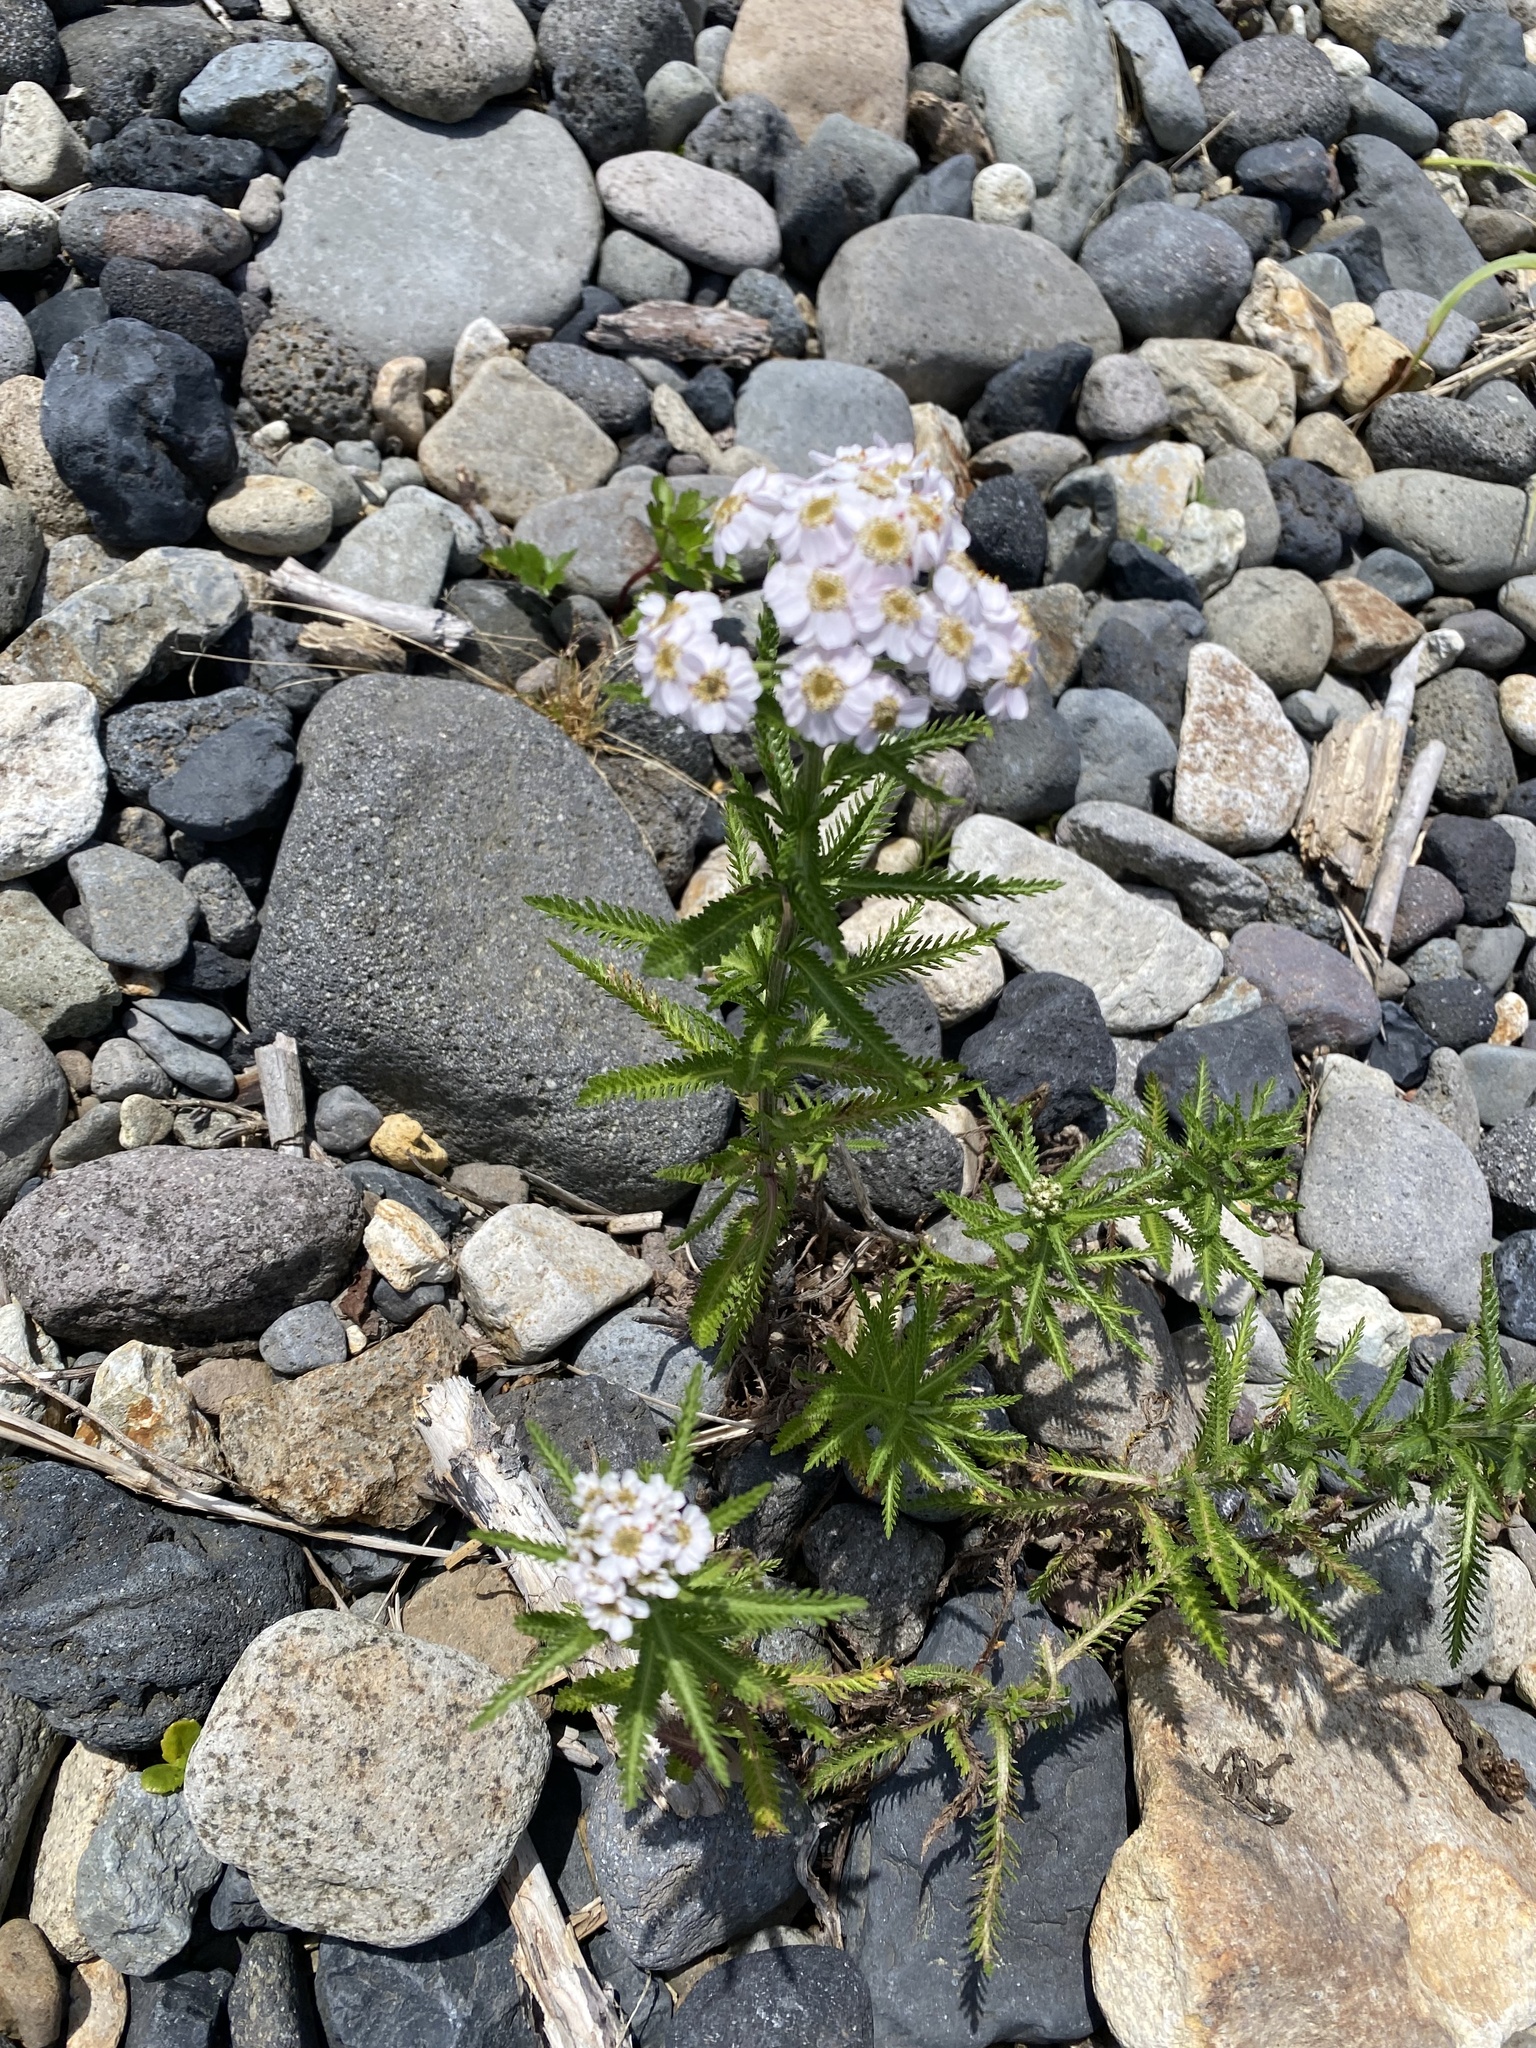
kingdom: Plantae
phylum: Tracheophyta
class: Magnoliopsida
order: Asterales
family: Asteraceae
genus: Achillea
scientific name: Achillea alpina
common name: Siberian yarrow
